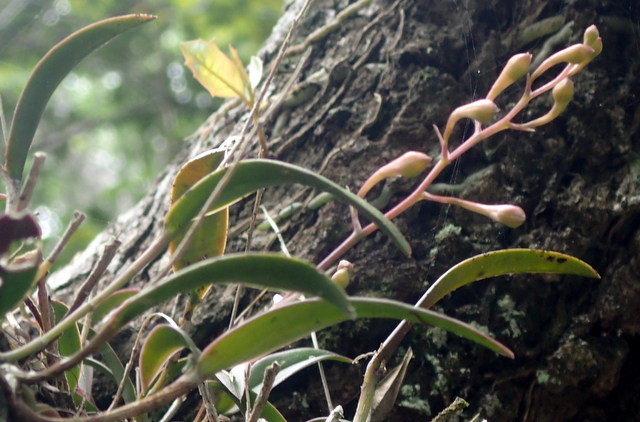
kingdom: Plantae
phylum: Tracheophyta
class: Liliopsida
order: Asparagales
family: Orchidaceae
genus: Epidendrum
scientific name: Epidendrum conopseum
